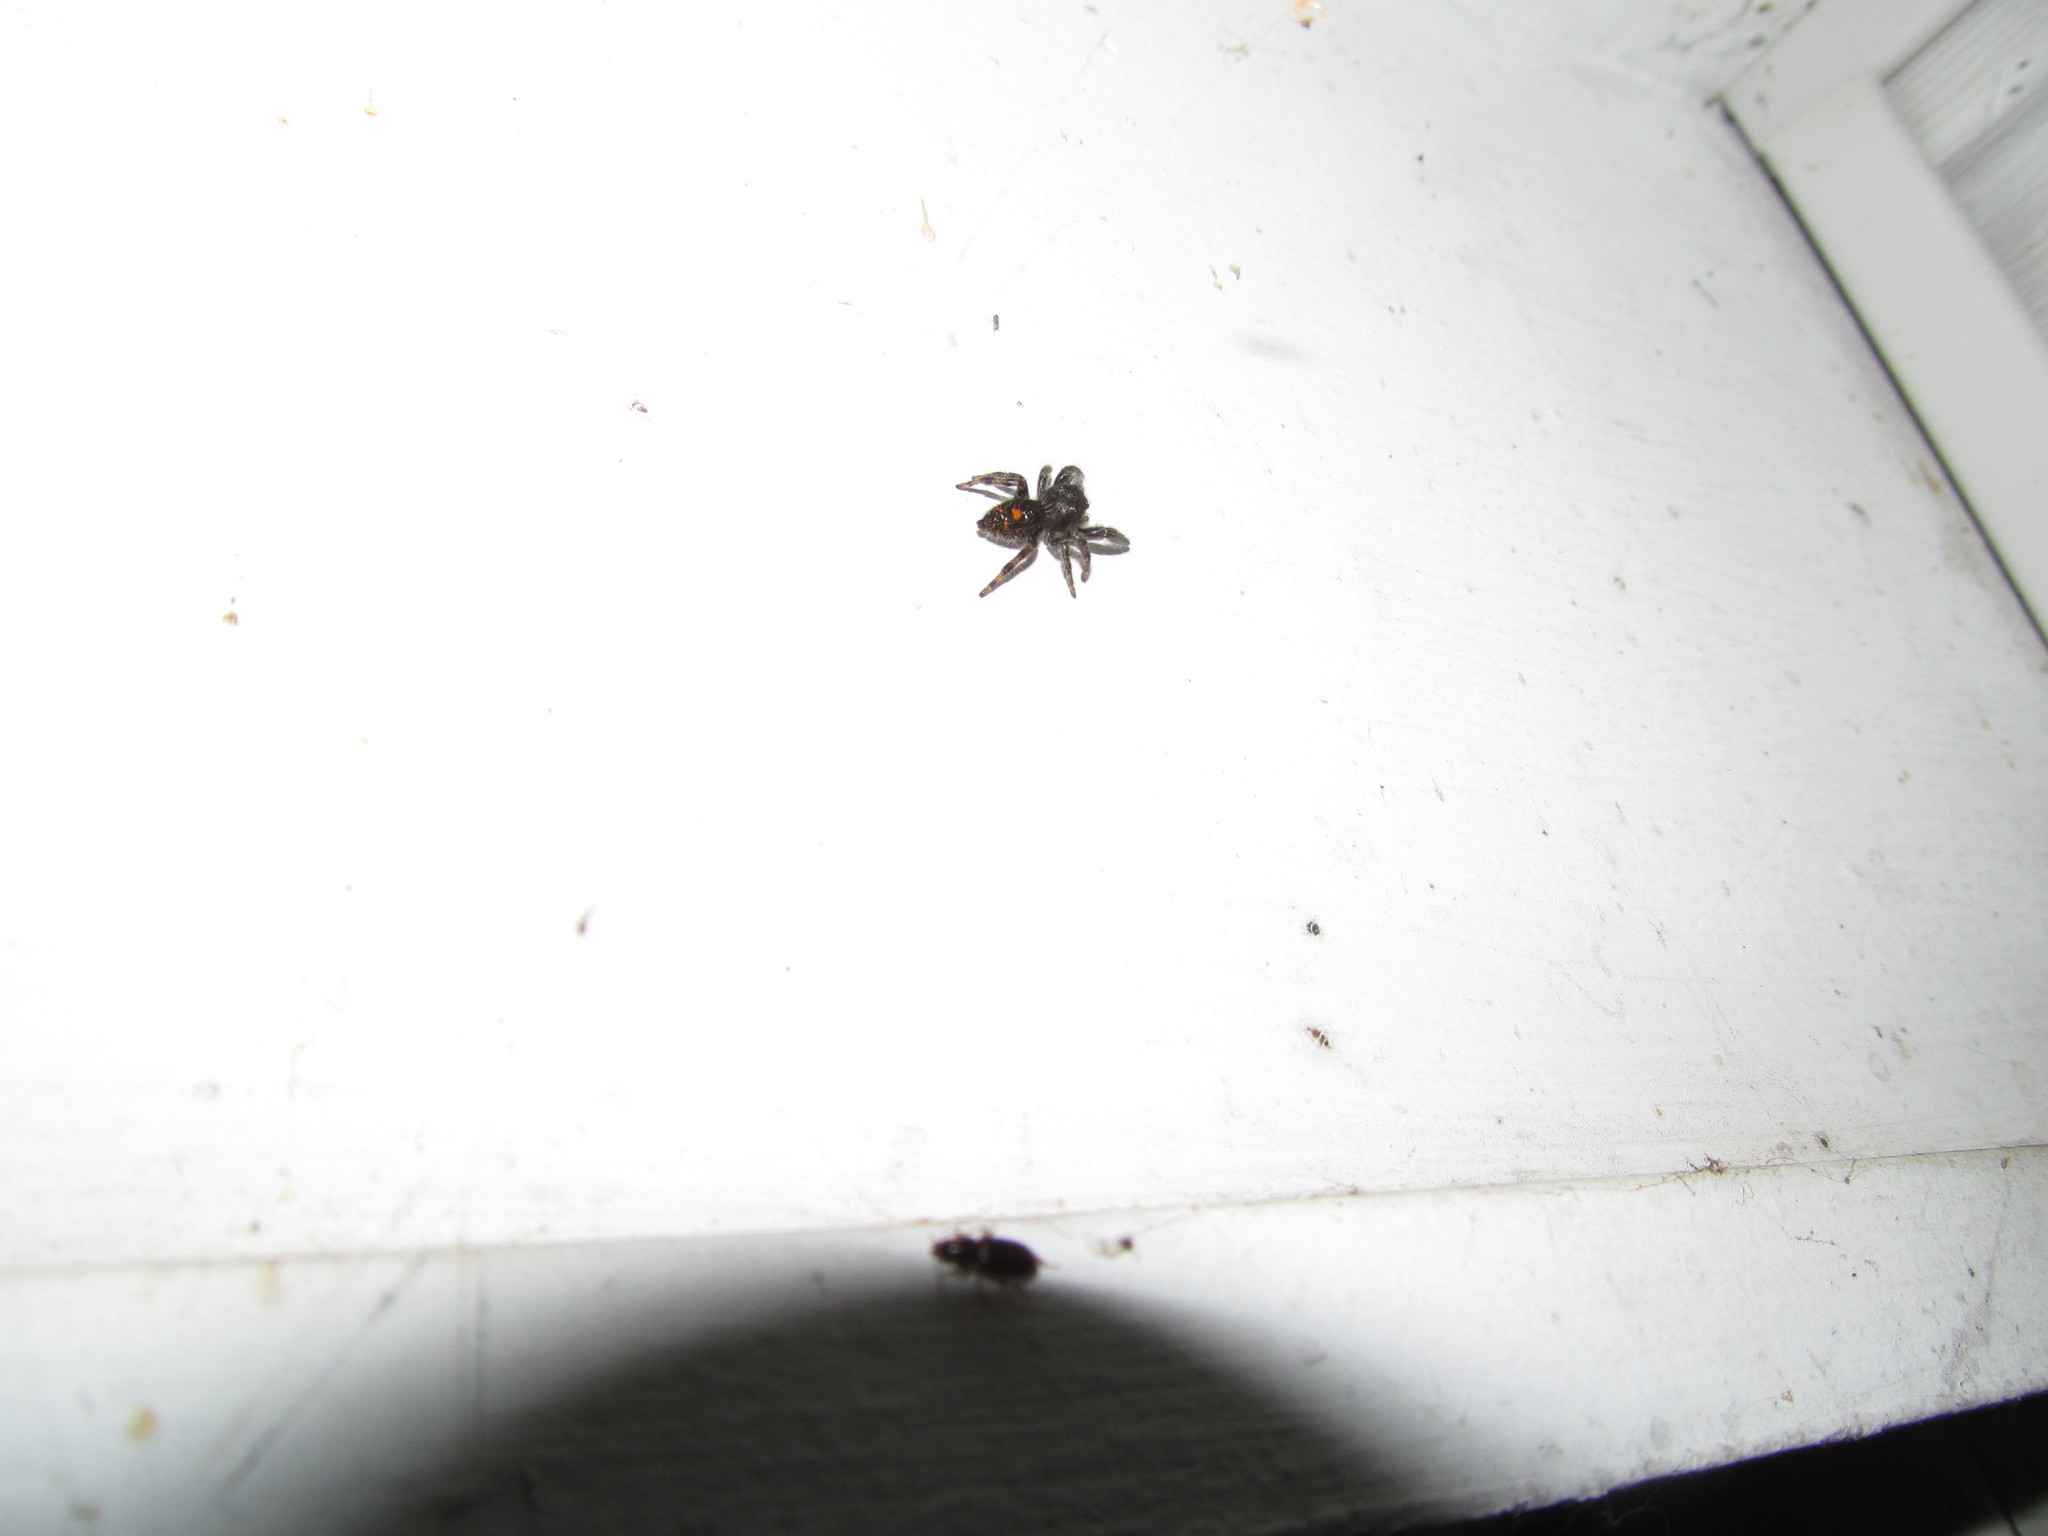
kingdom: Animalia
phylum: Arthropoda
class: Arachnida
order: Araneae
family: Salticidae
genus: Phidippus
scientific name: Phidippus audax
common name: Bold jumper
